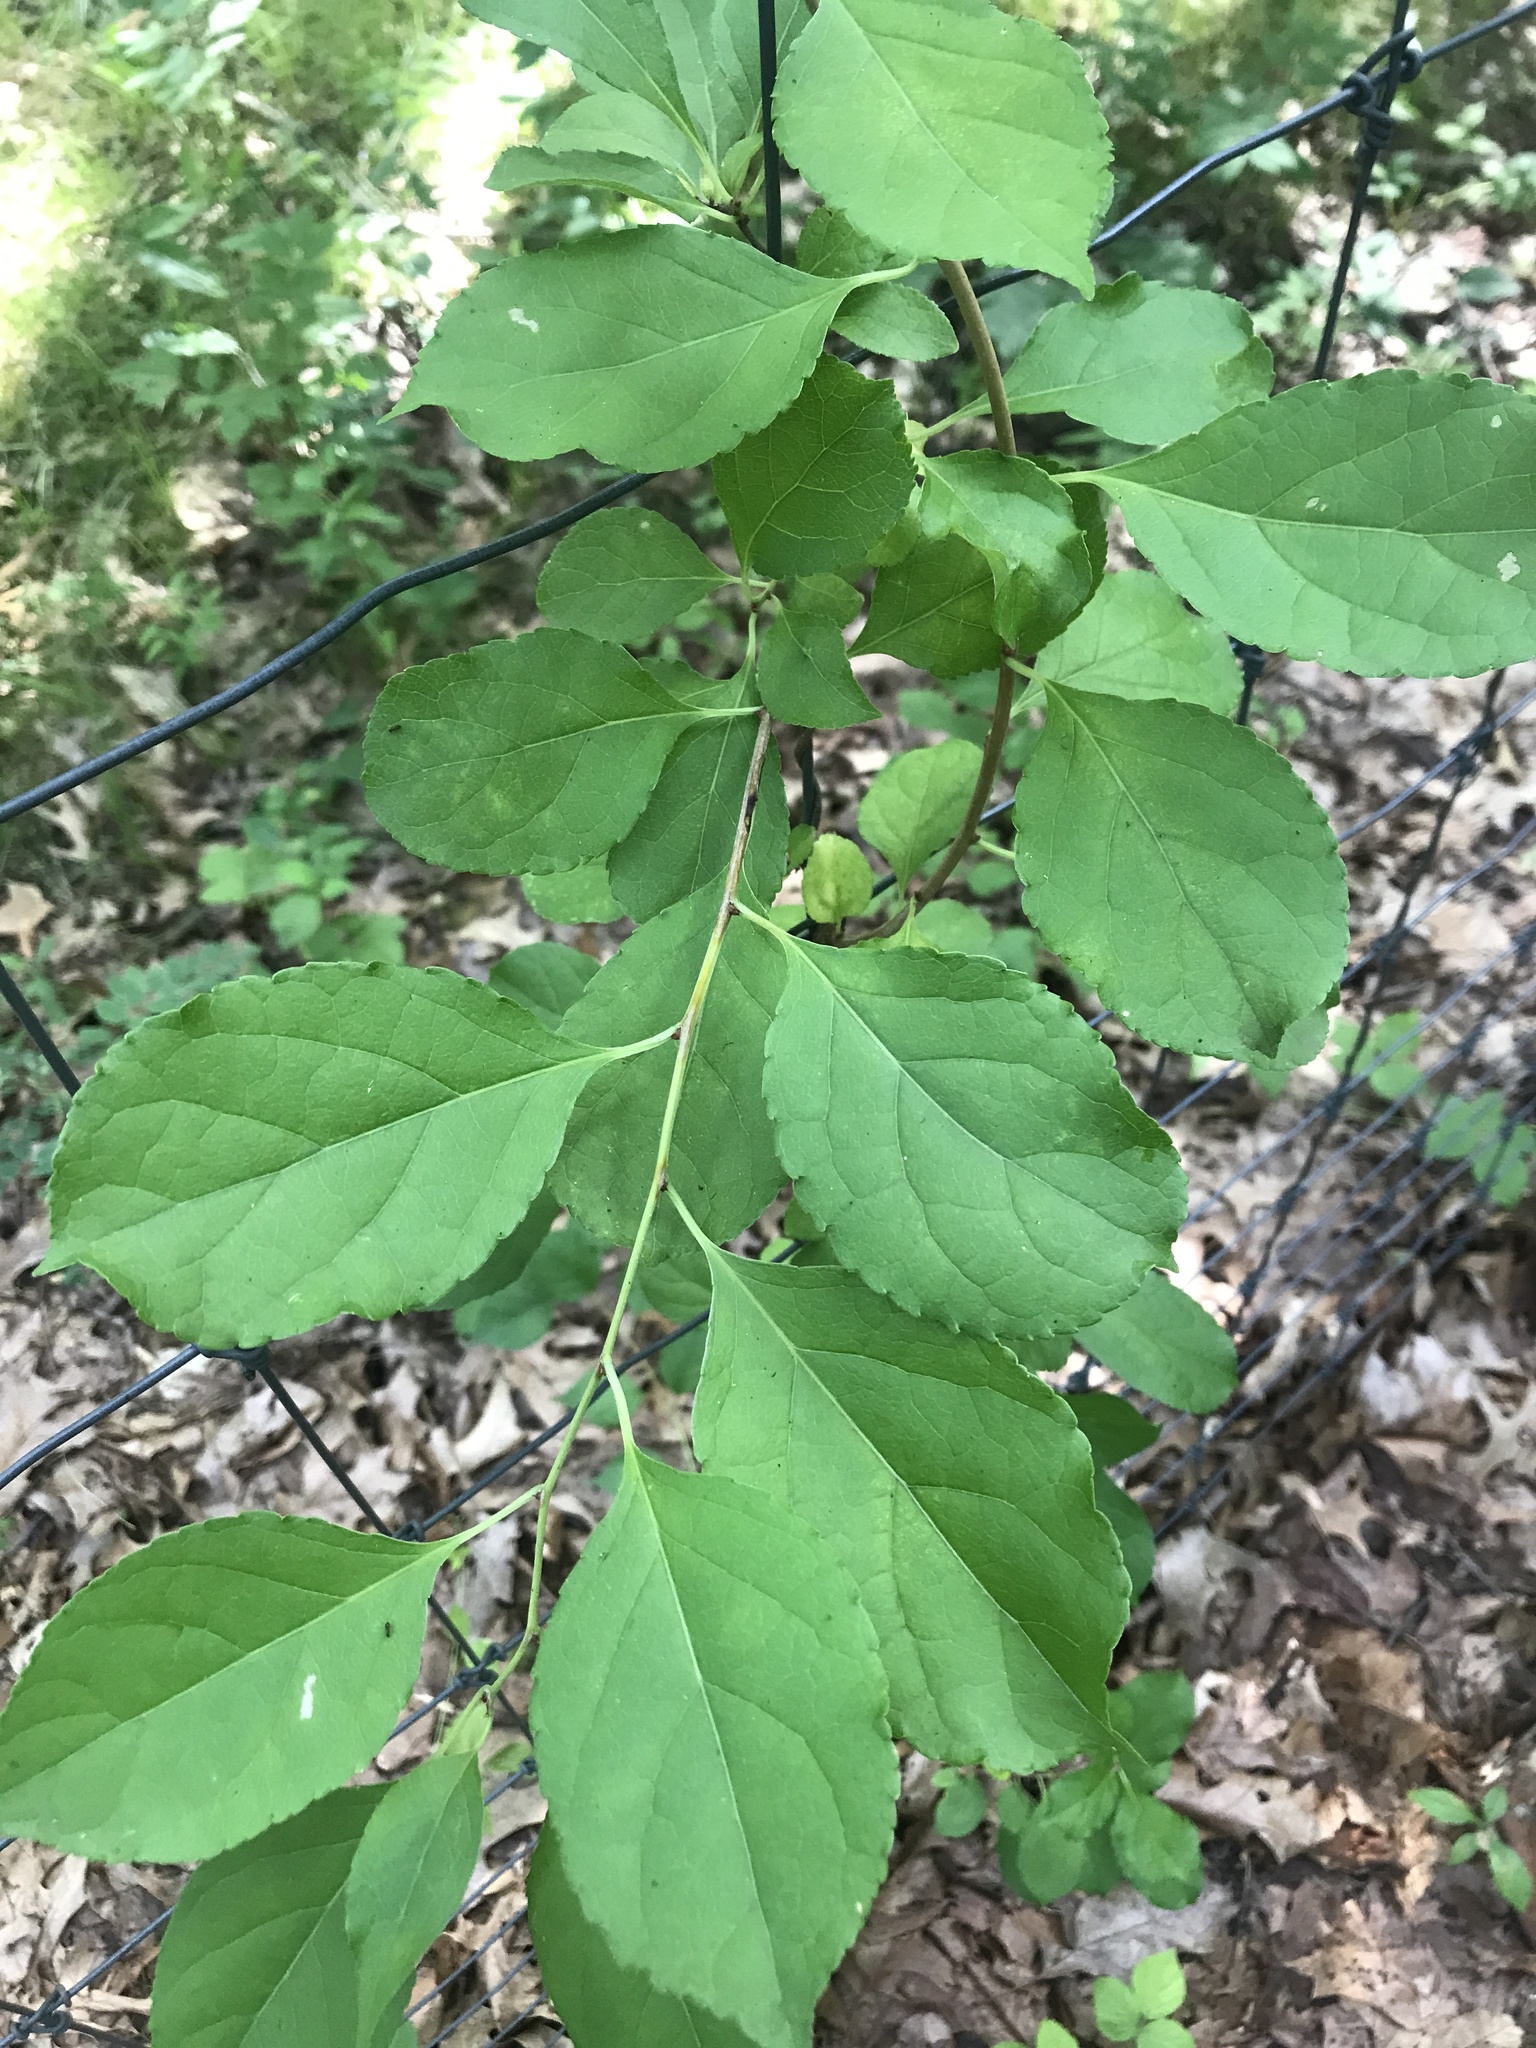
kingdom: Plantae
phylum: Tracheophyta
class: Magnoliopsida
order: Celastrales
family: Celastraceae
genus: Celastrus
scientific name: Celastrus orbiculatus
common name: Oriental bittersweet
